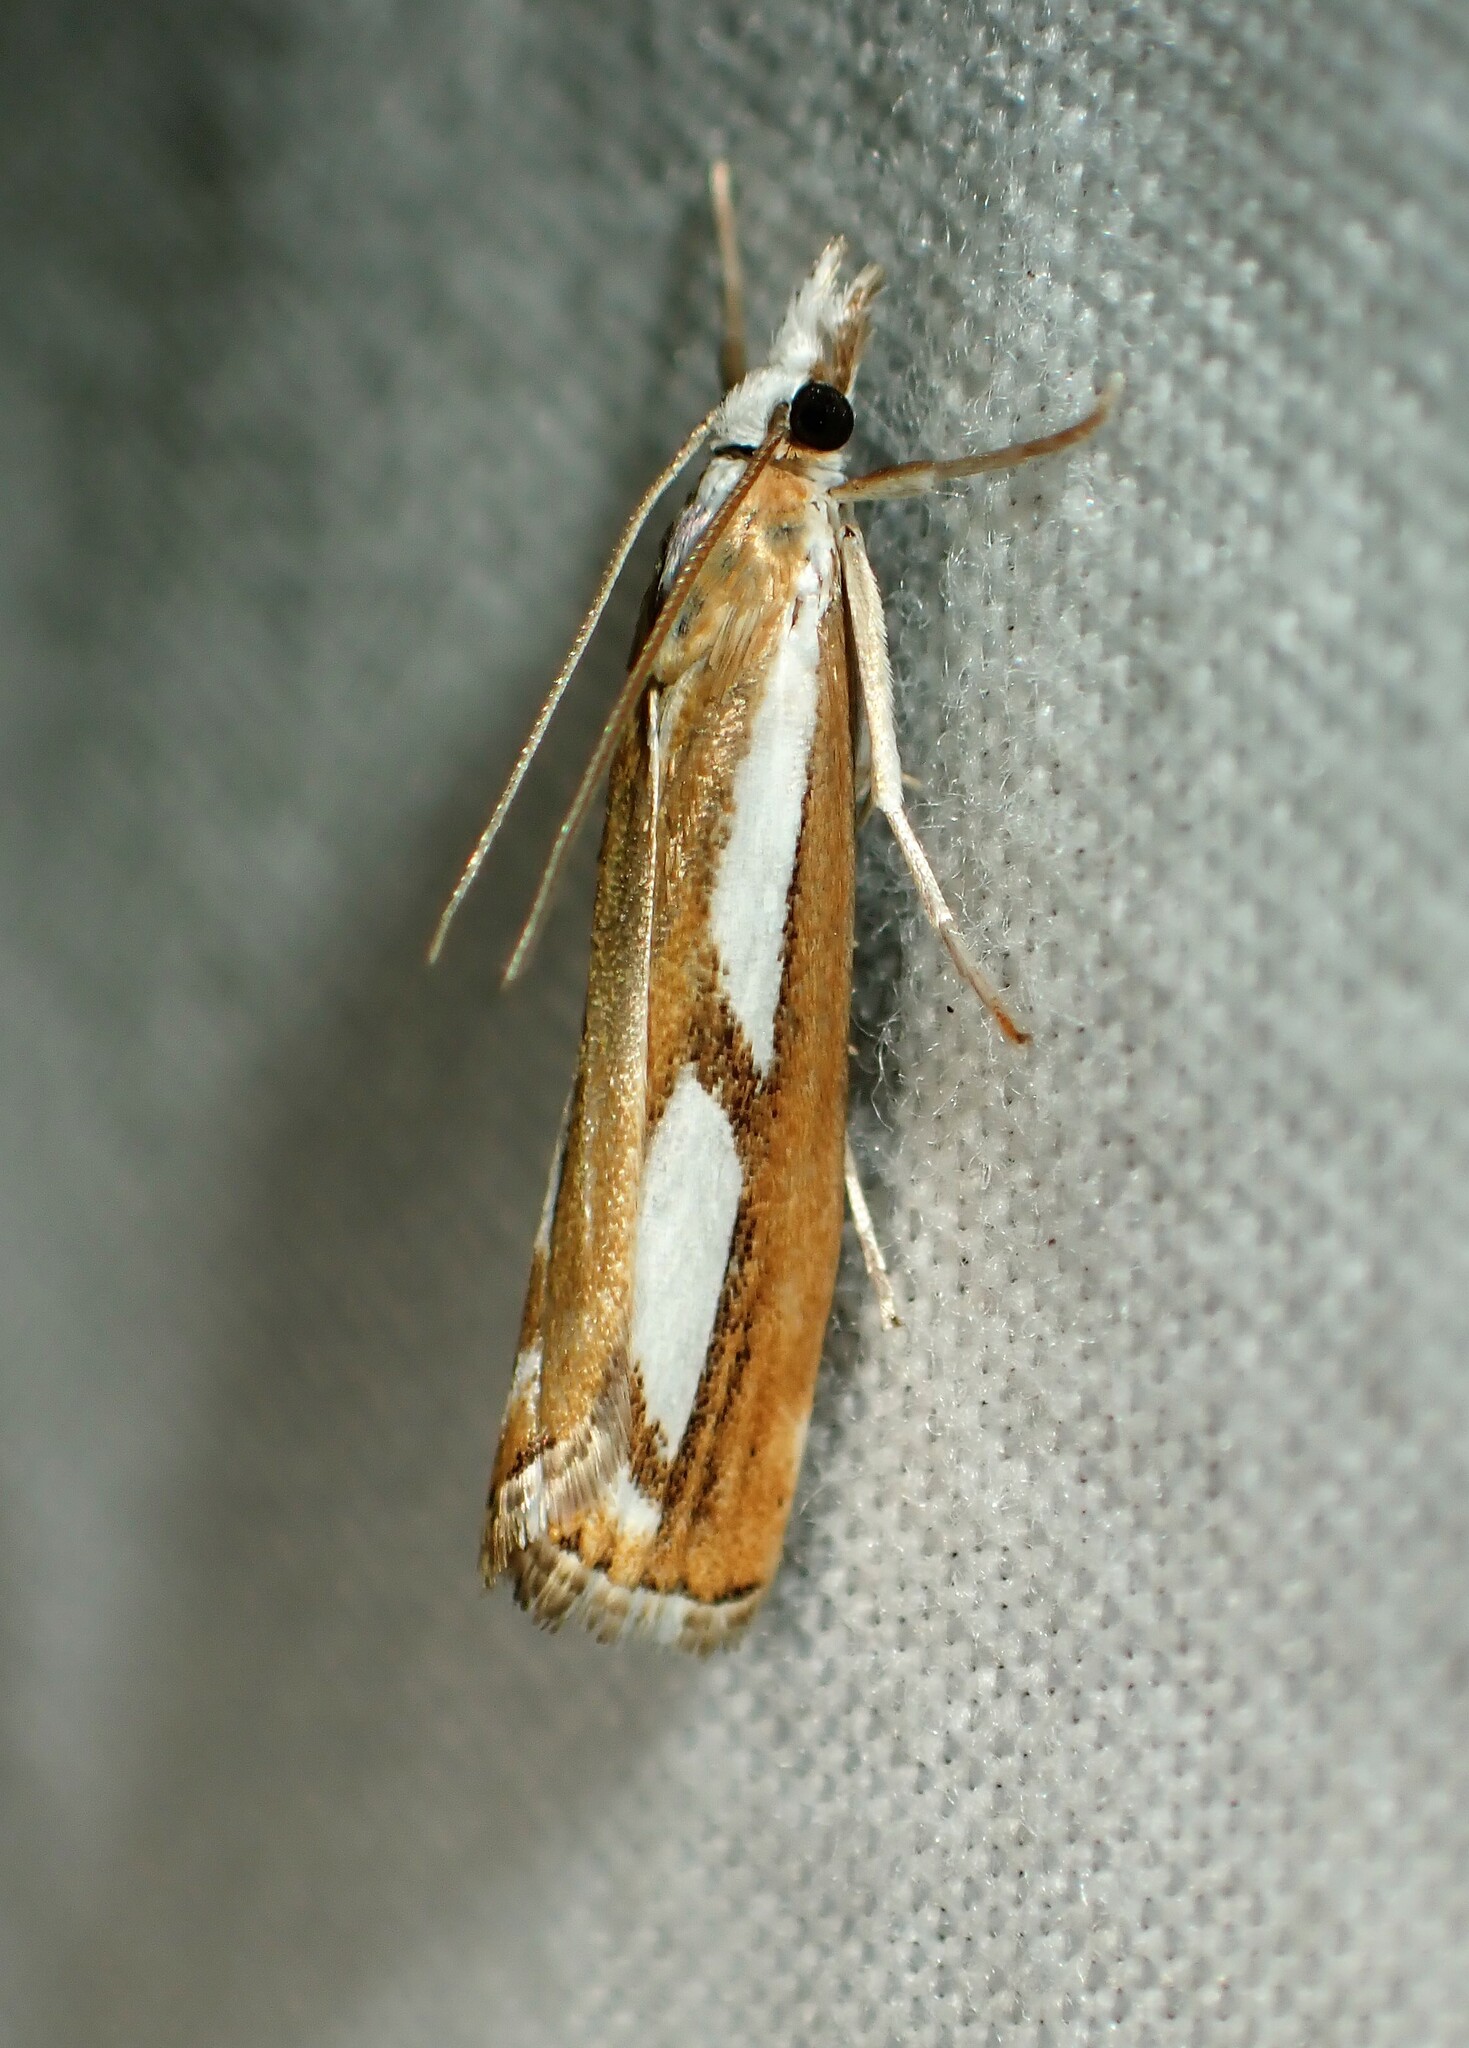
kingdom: Animalia
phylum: Arthropoda
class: Insecta
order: Lepidoptera
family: Crambidae
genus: Catoptria
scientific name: Catoptria latiradiellus
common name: Two-banded catoptria moth
